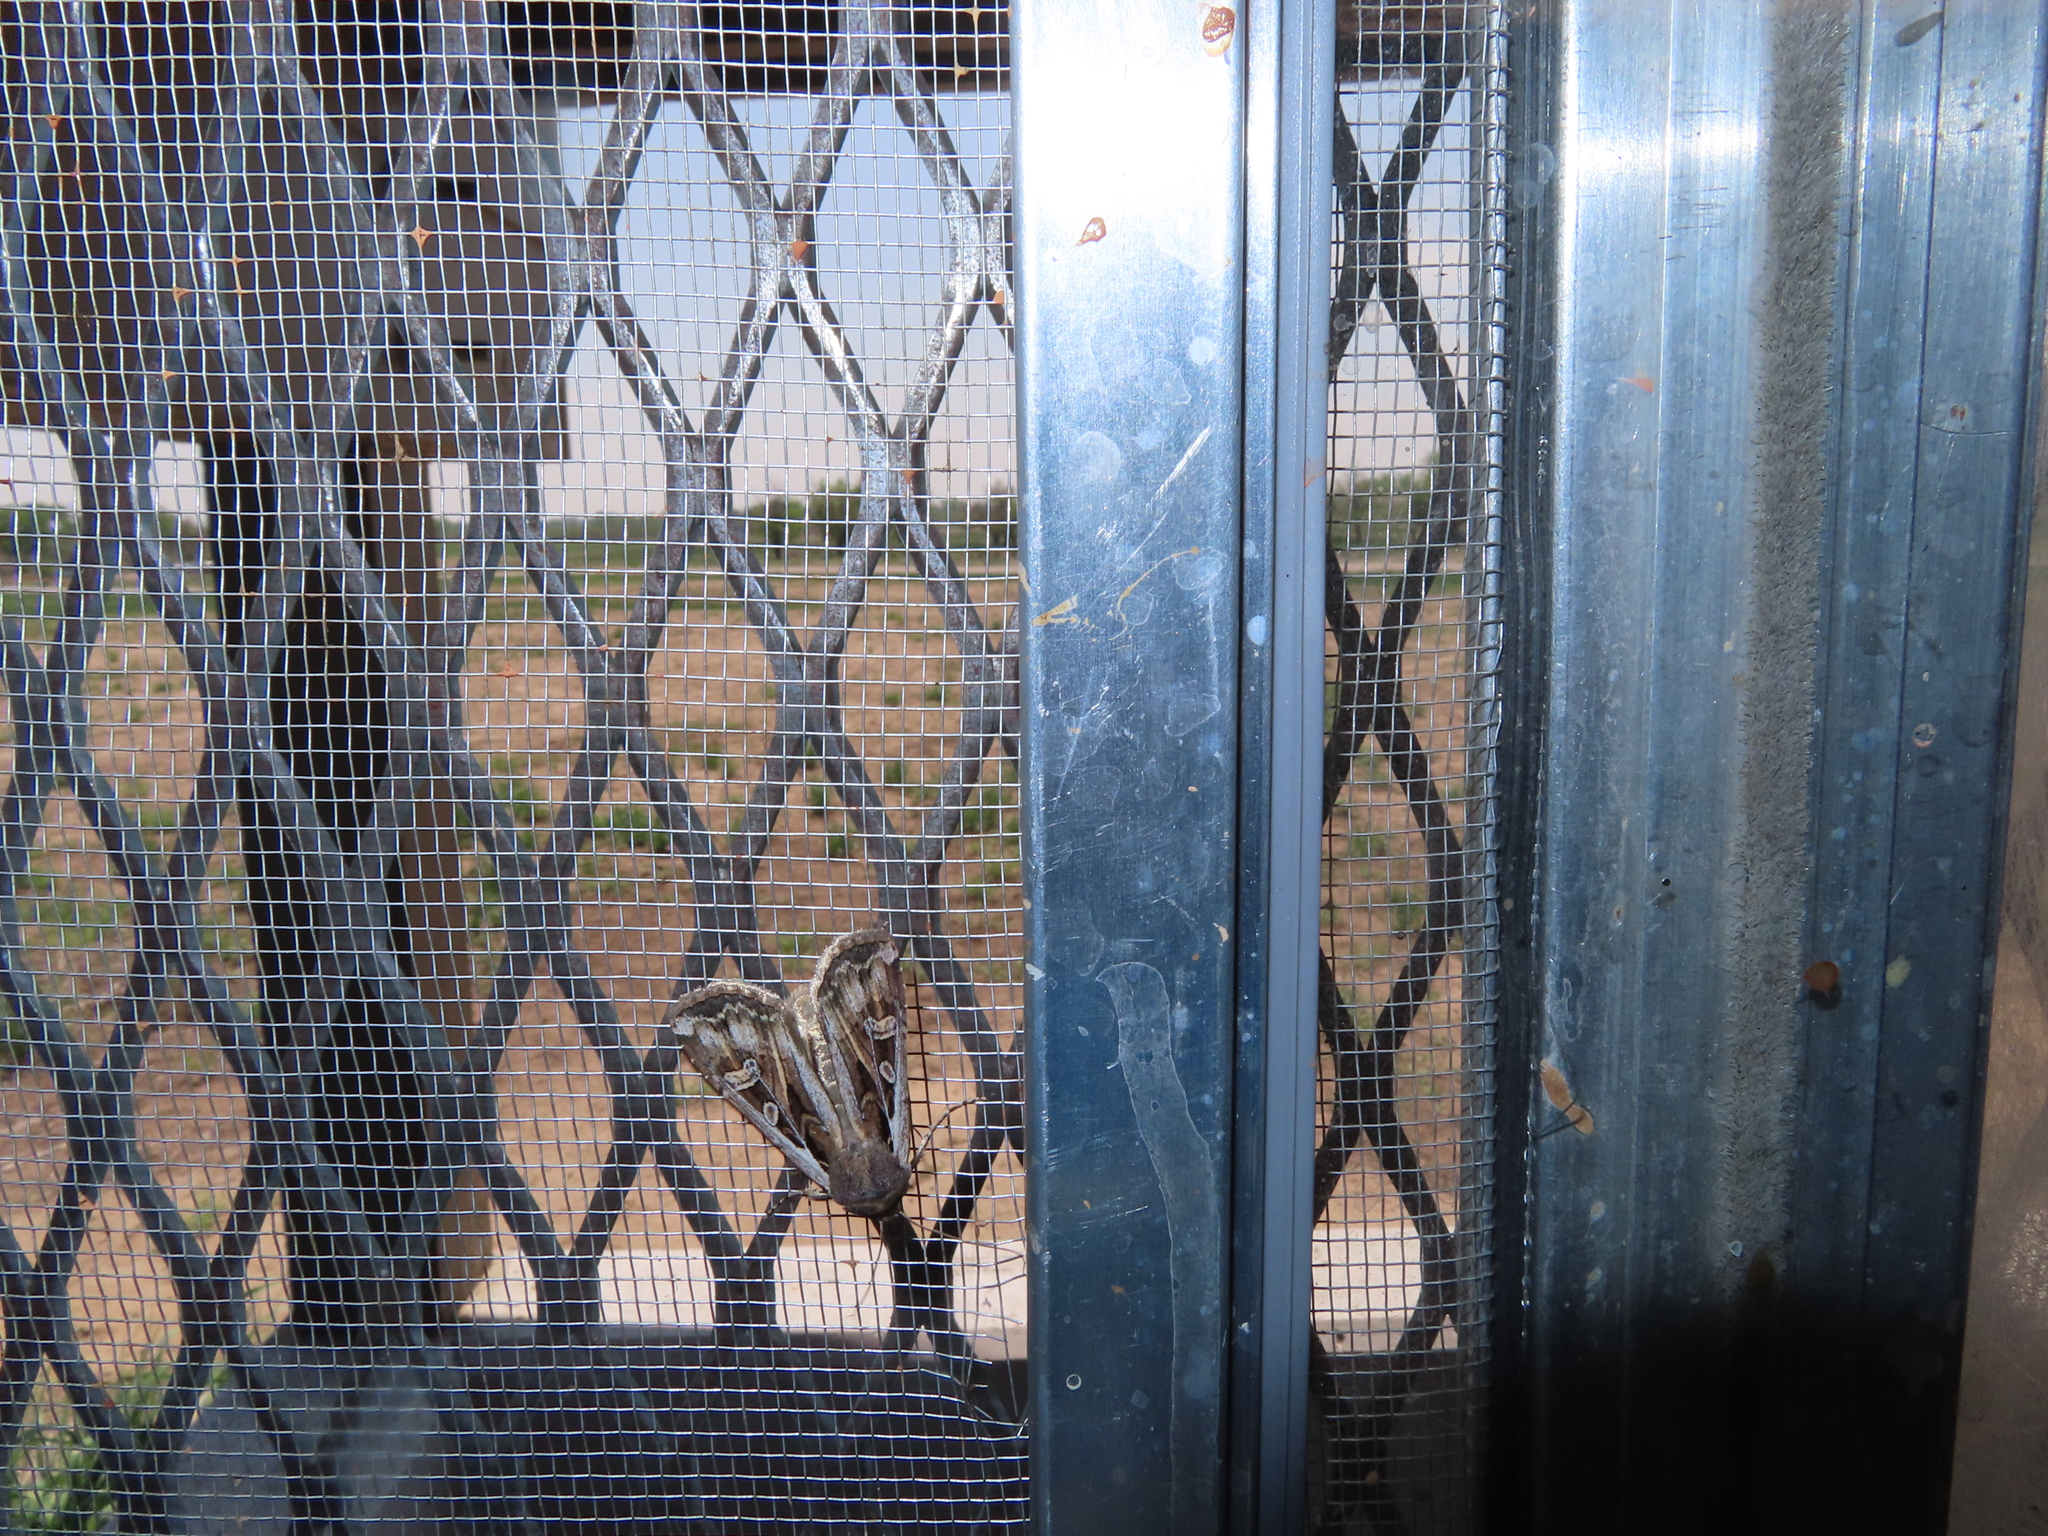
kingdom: Animalia
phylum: Arthropoda
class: Insecta
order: Lepidoptera
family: Noctuidae
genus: Euxoa
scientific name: Euxoa auxiliaris
